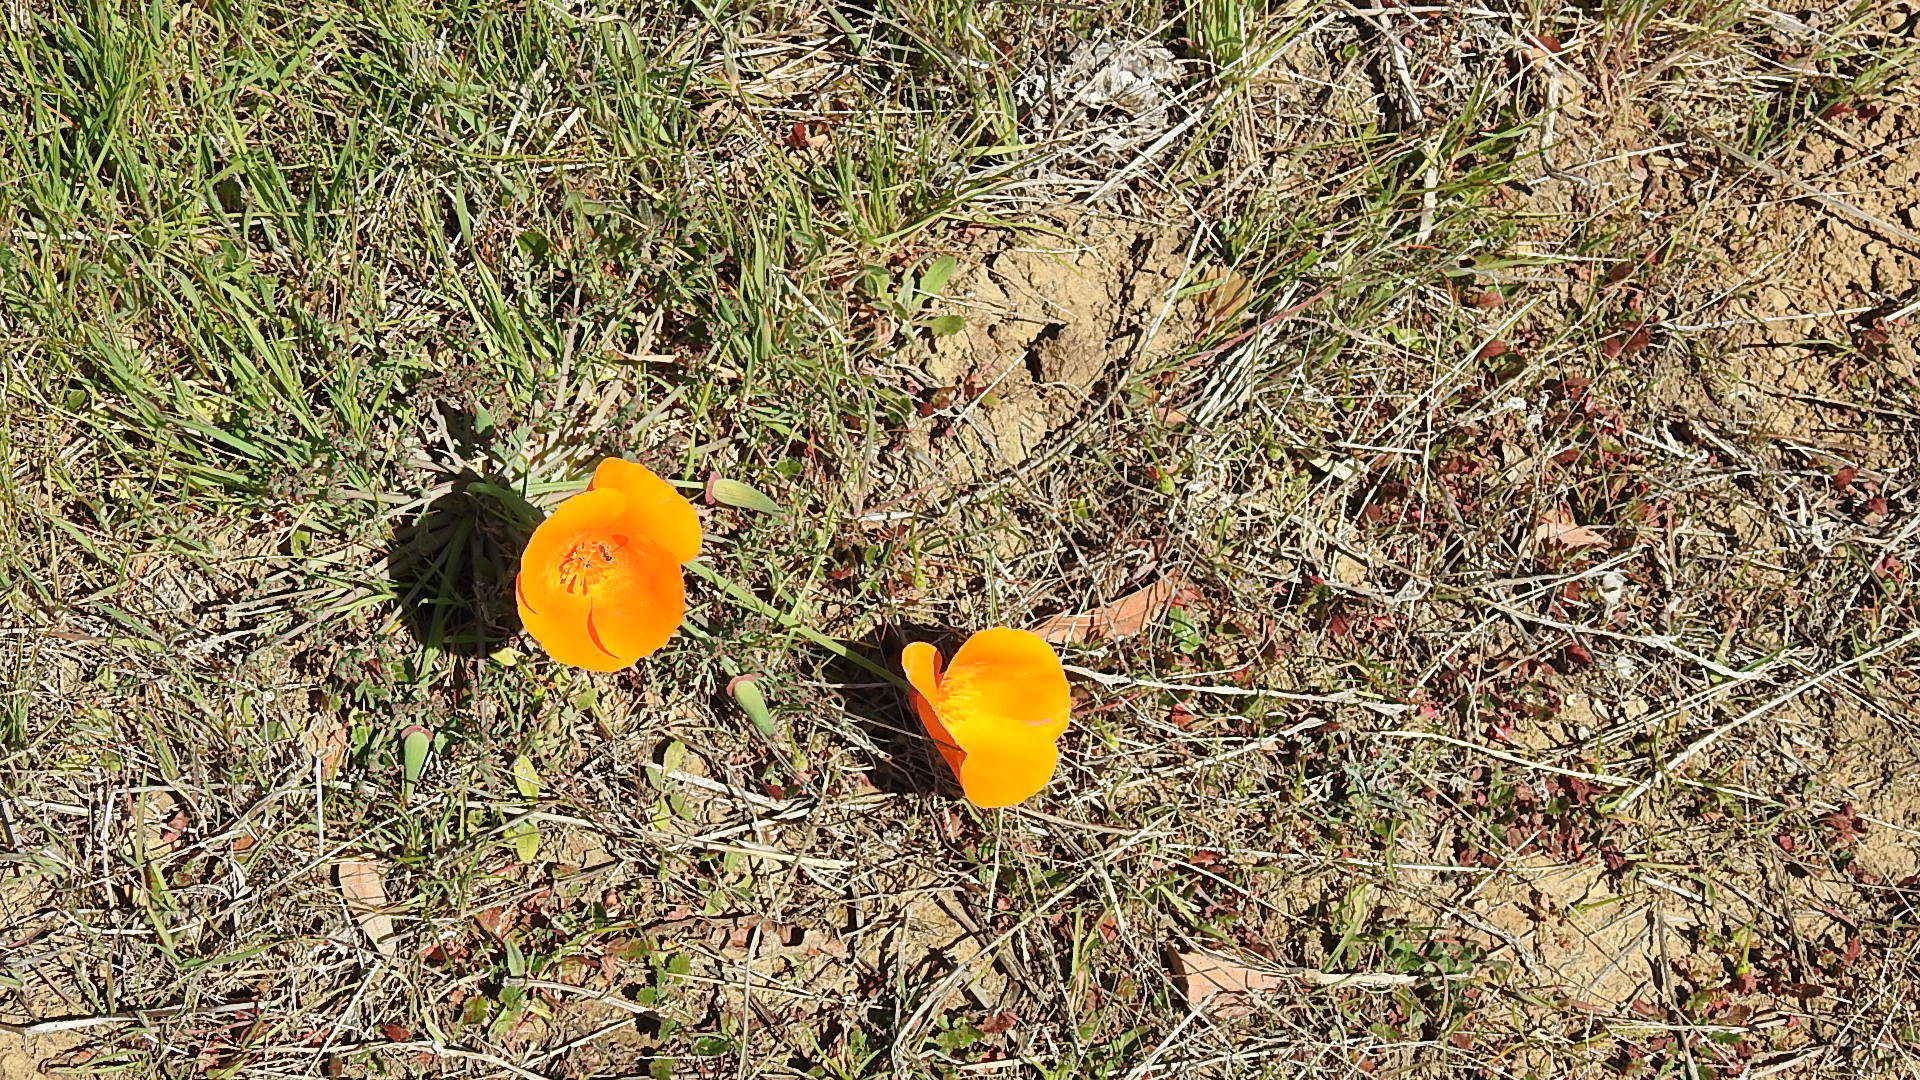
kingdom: Plantae
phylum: Tracheophyta
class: Magnoliopsida
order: Ranunculales
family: Papaveraceae
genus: Eschscholzia
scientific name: Eschscholzia californica
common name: California poppy
